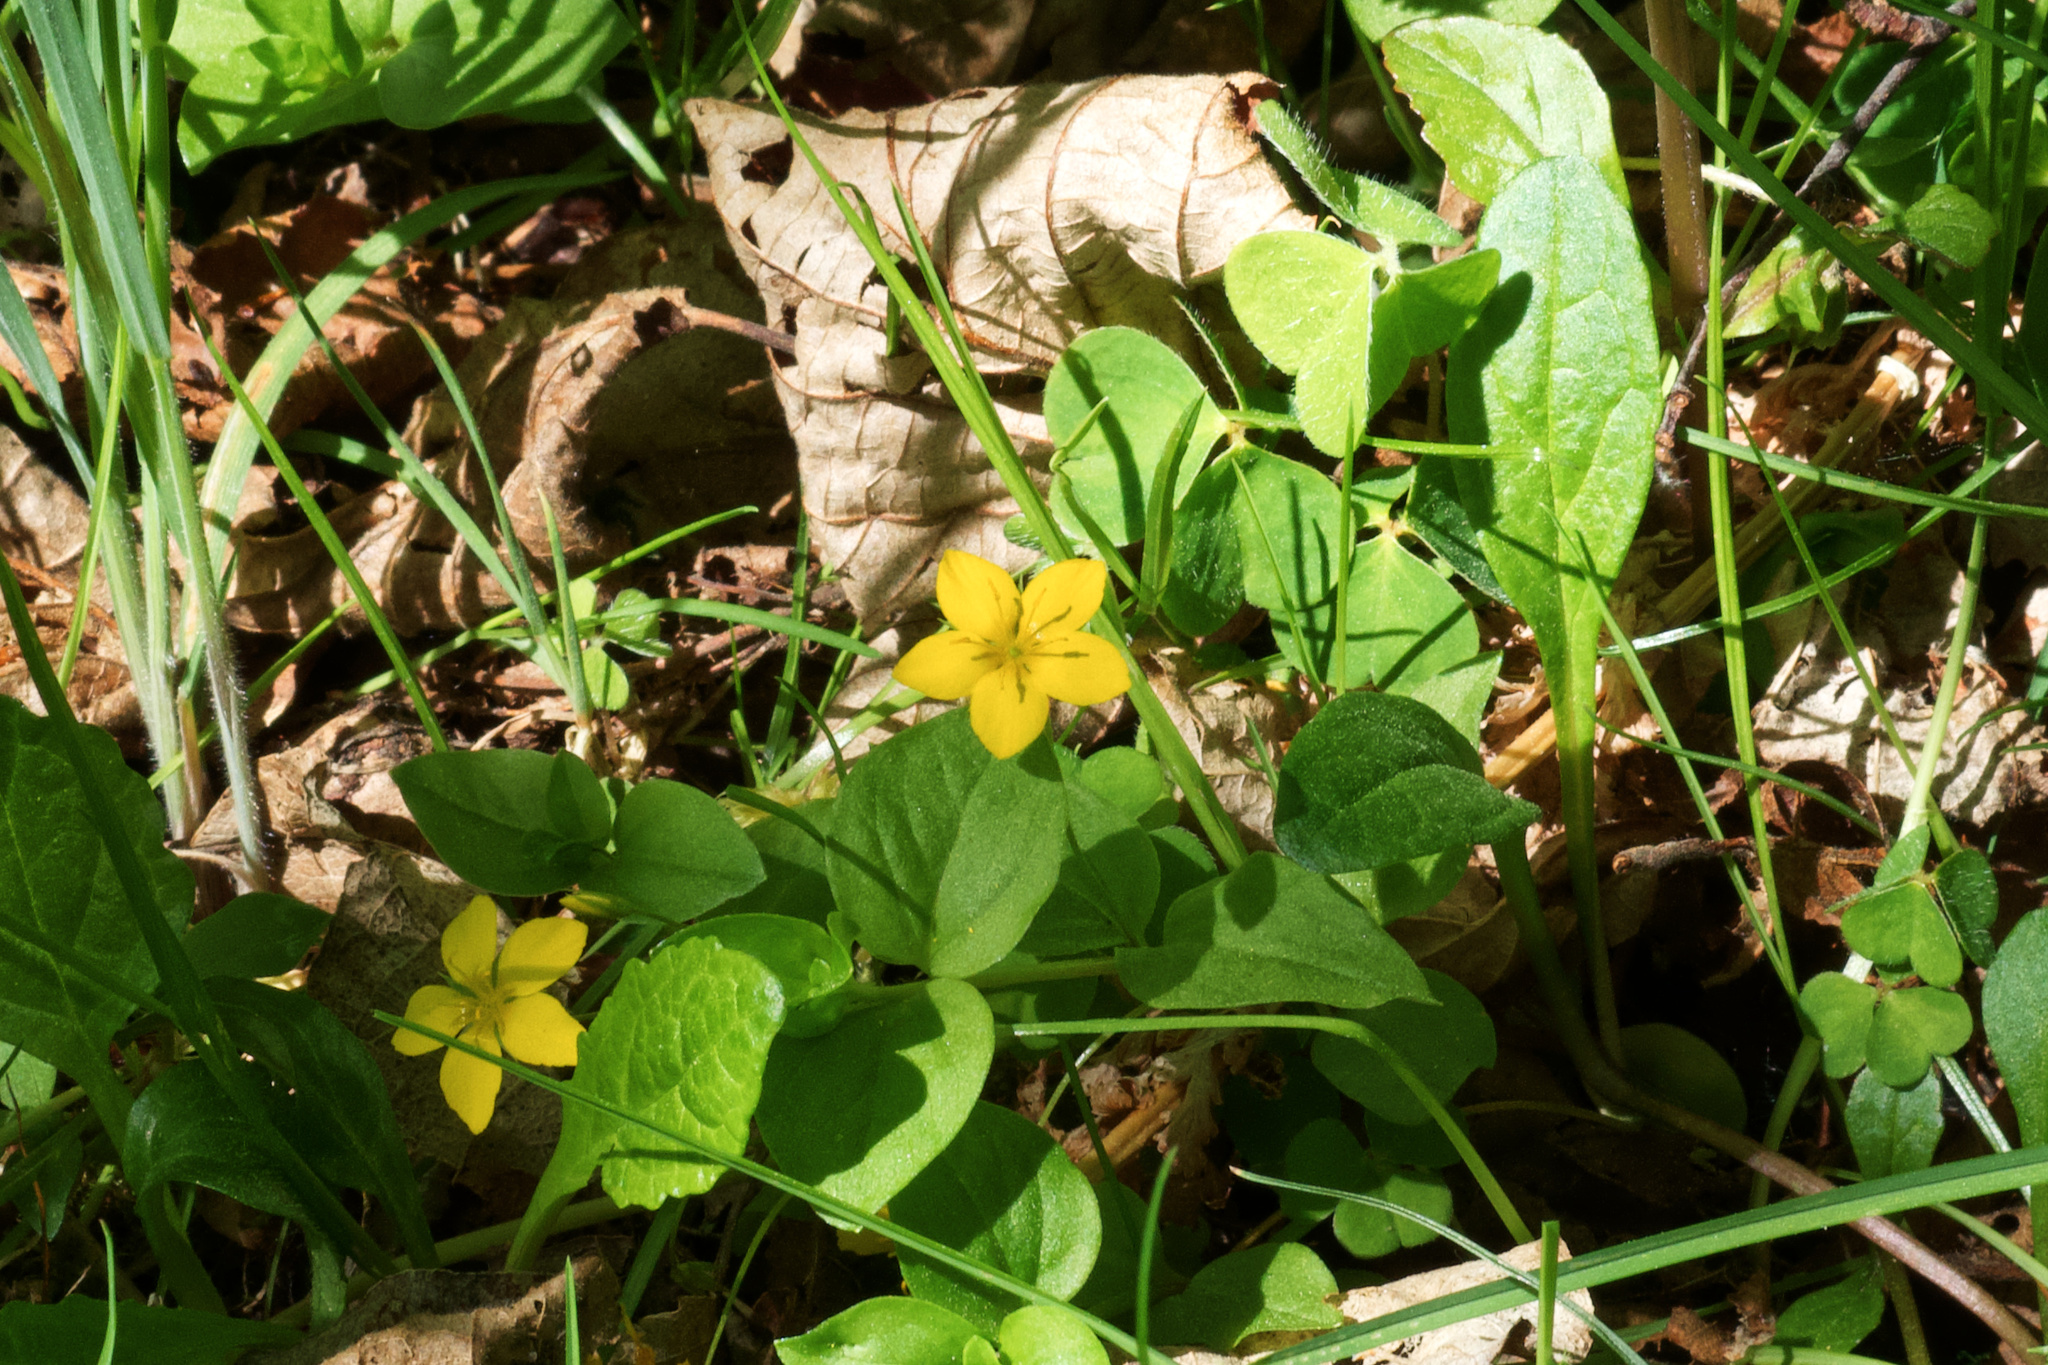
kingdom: Plantae
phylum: Tracheophyta
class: Magnoliopsida
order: Ericales
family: Primulaceae
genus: Lysimachia
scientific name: Lysimachia nemorum
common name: Yellow pimpernel
